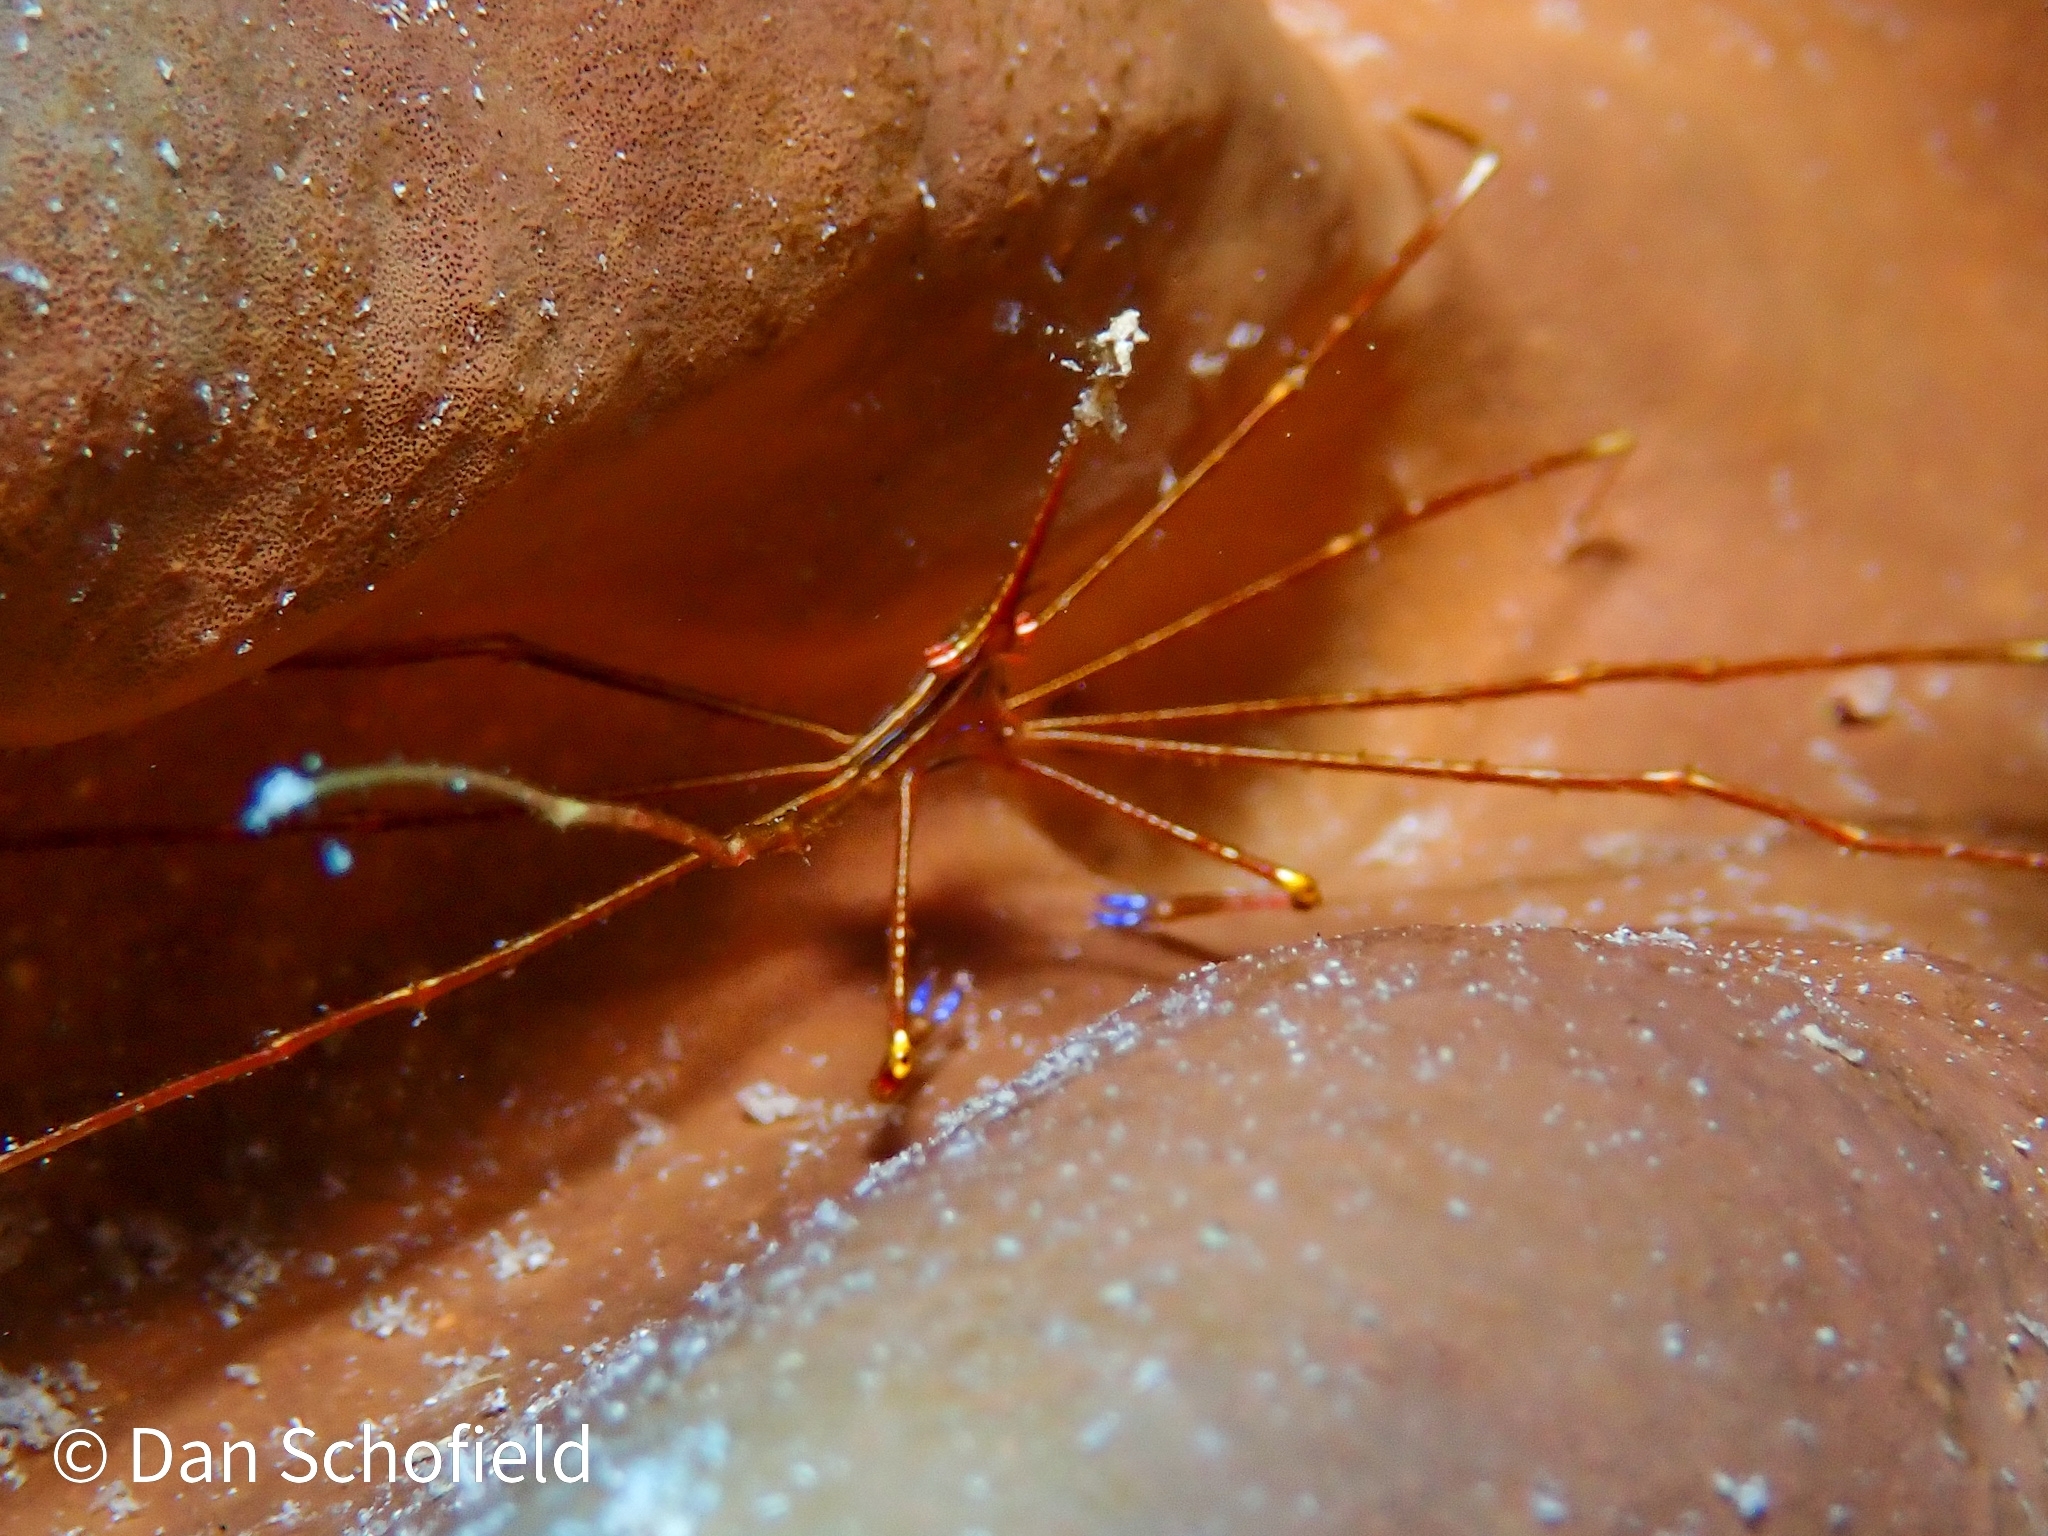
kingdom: Animalia
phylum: Arthropoda
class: Malacostraca
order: Decapoda
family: Inachoididae
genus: Stenorhynchus
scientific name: Stenorhynchus seticornis
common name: Arrow crab
